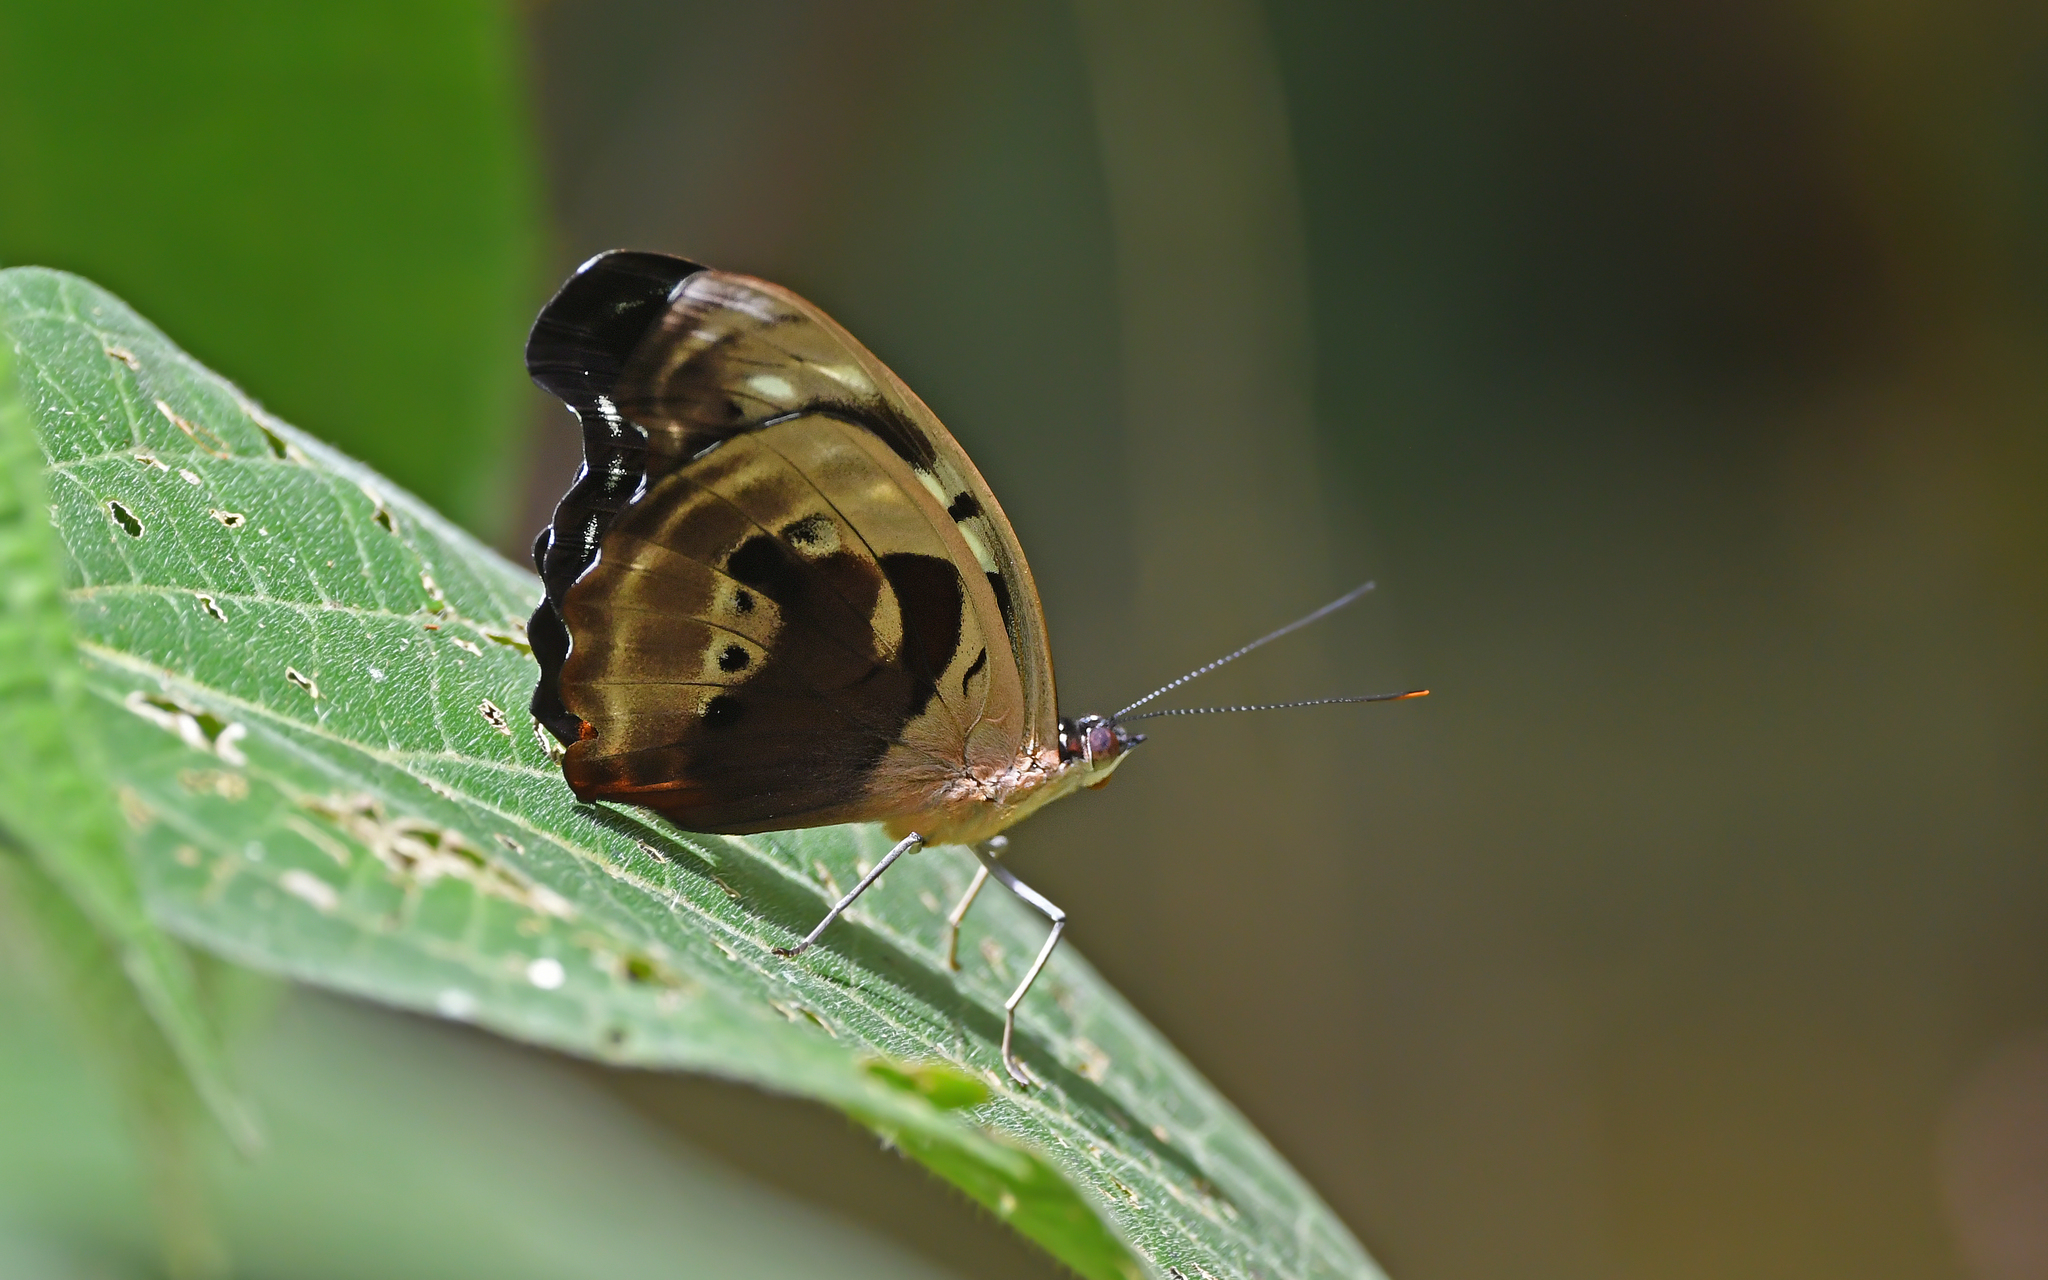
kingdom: Animalia
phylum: Arthropoda
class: Insecta
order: Lepidoptera
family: Nymphalidae
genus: Catonephele
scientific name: Catonephele numilia
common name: Blue-frosted banner
